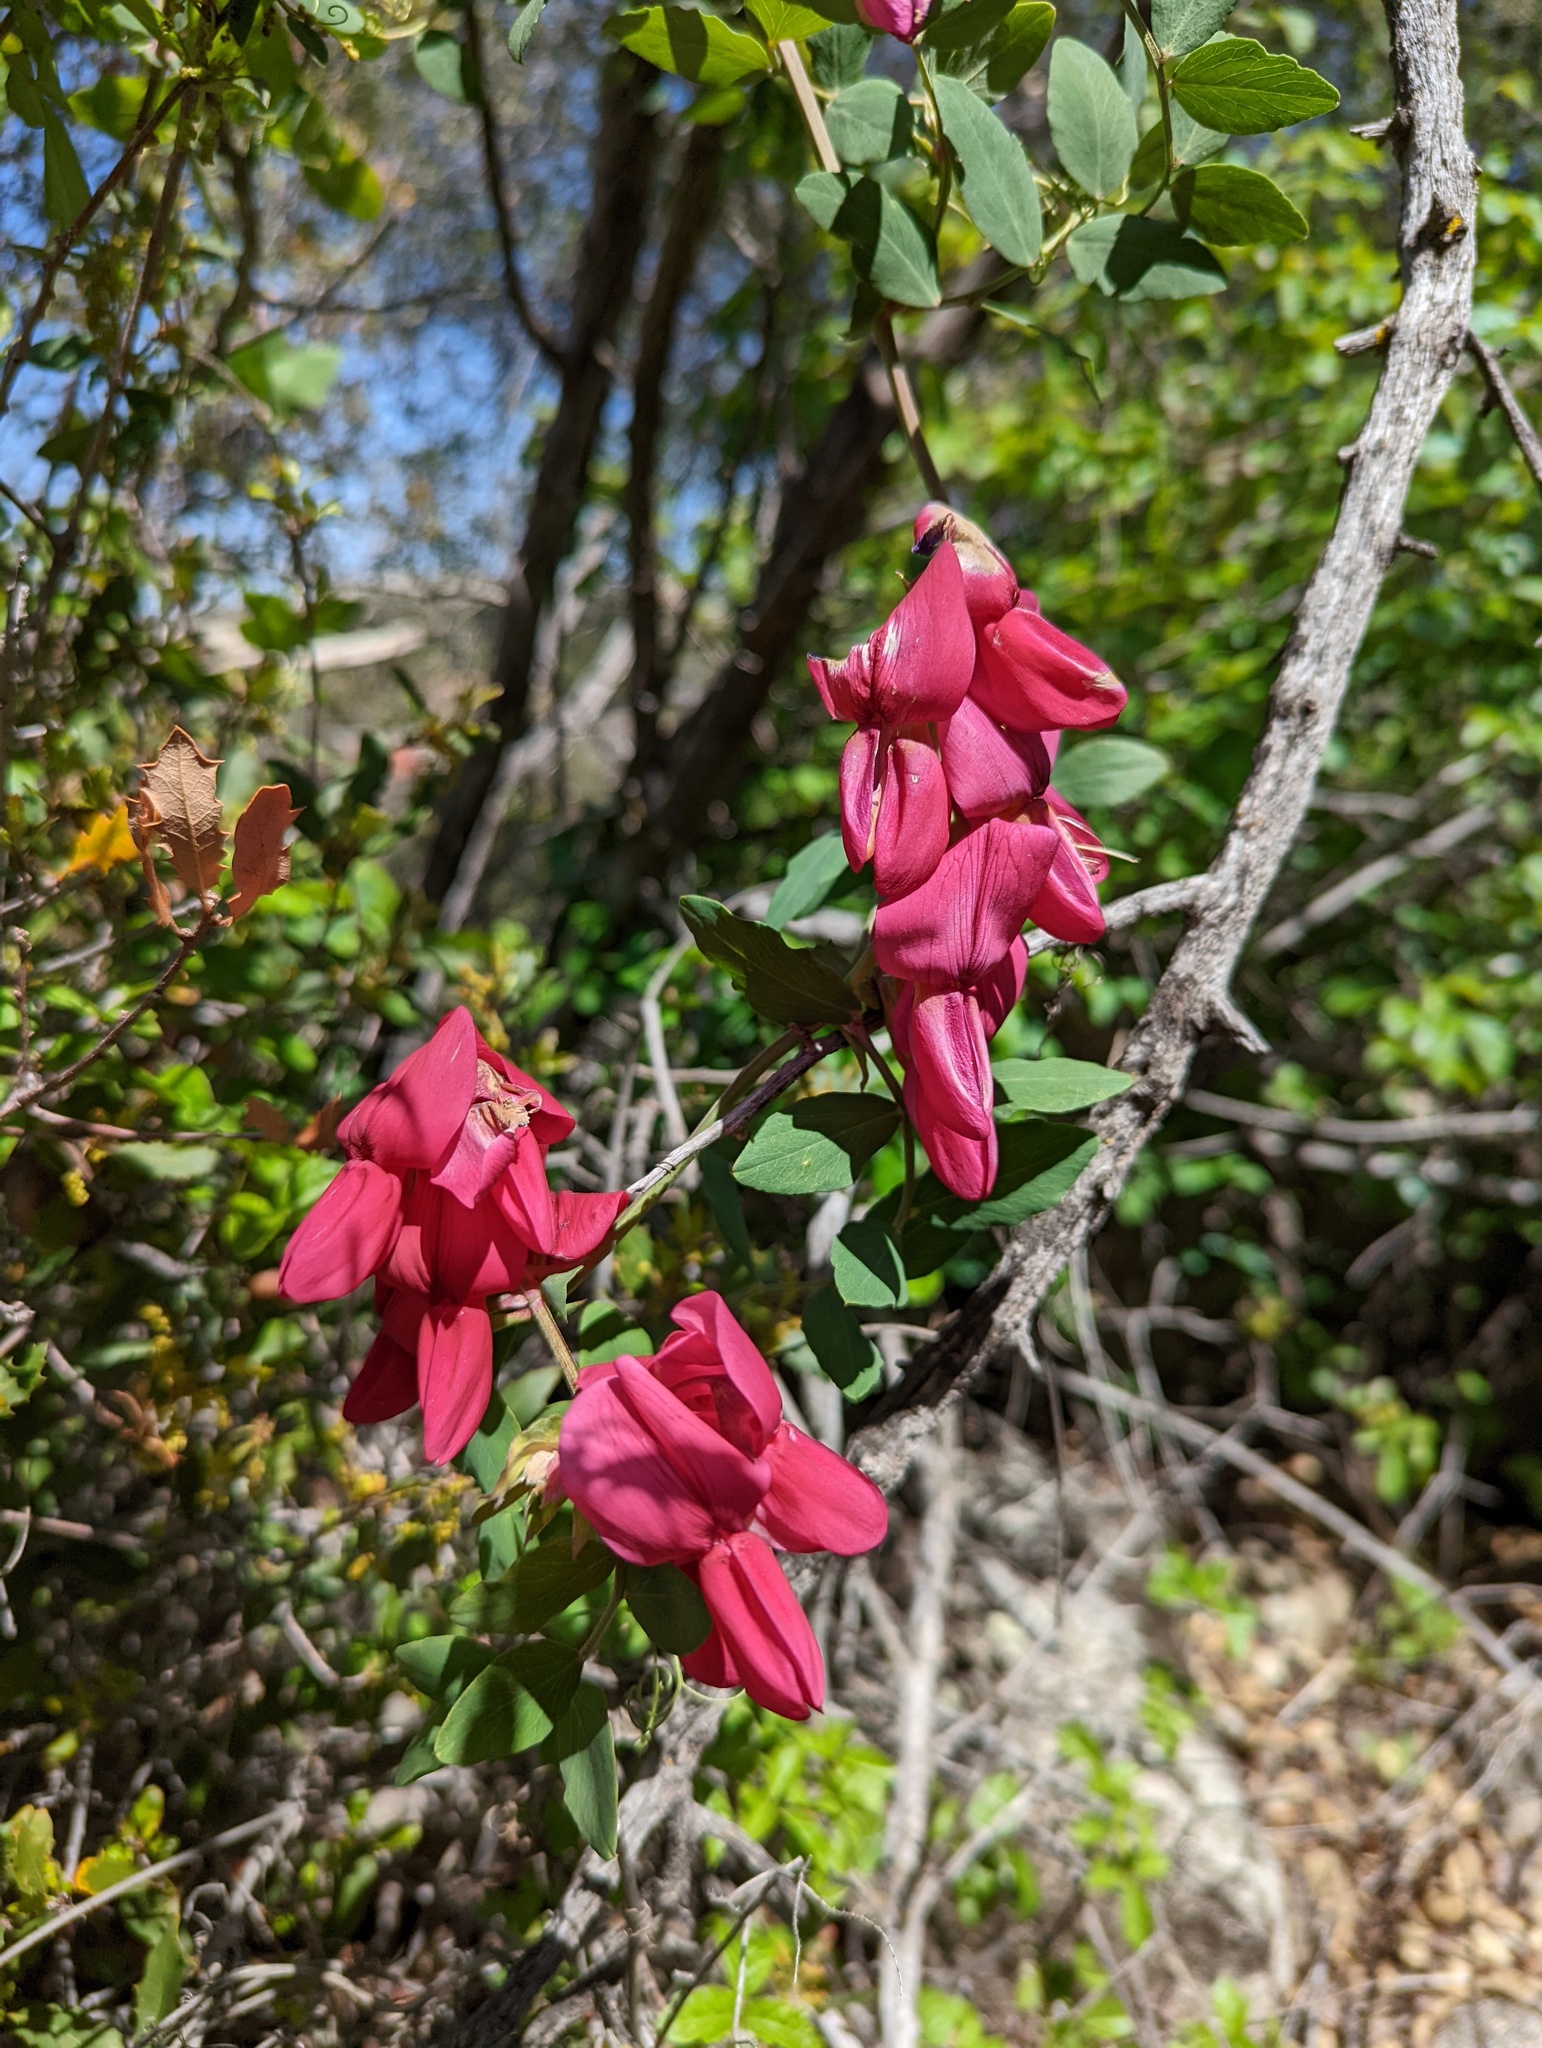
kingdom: Plantae
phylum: Tracheophyta
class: Magnoliopsida
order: Fabales
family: Fabaceae
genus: Lathyrus
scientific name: Lathyrus splendens
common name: Campo-pea
